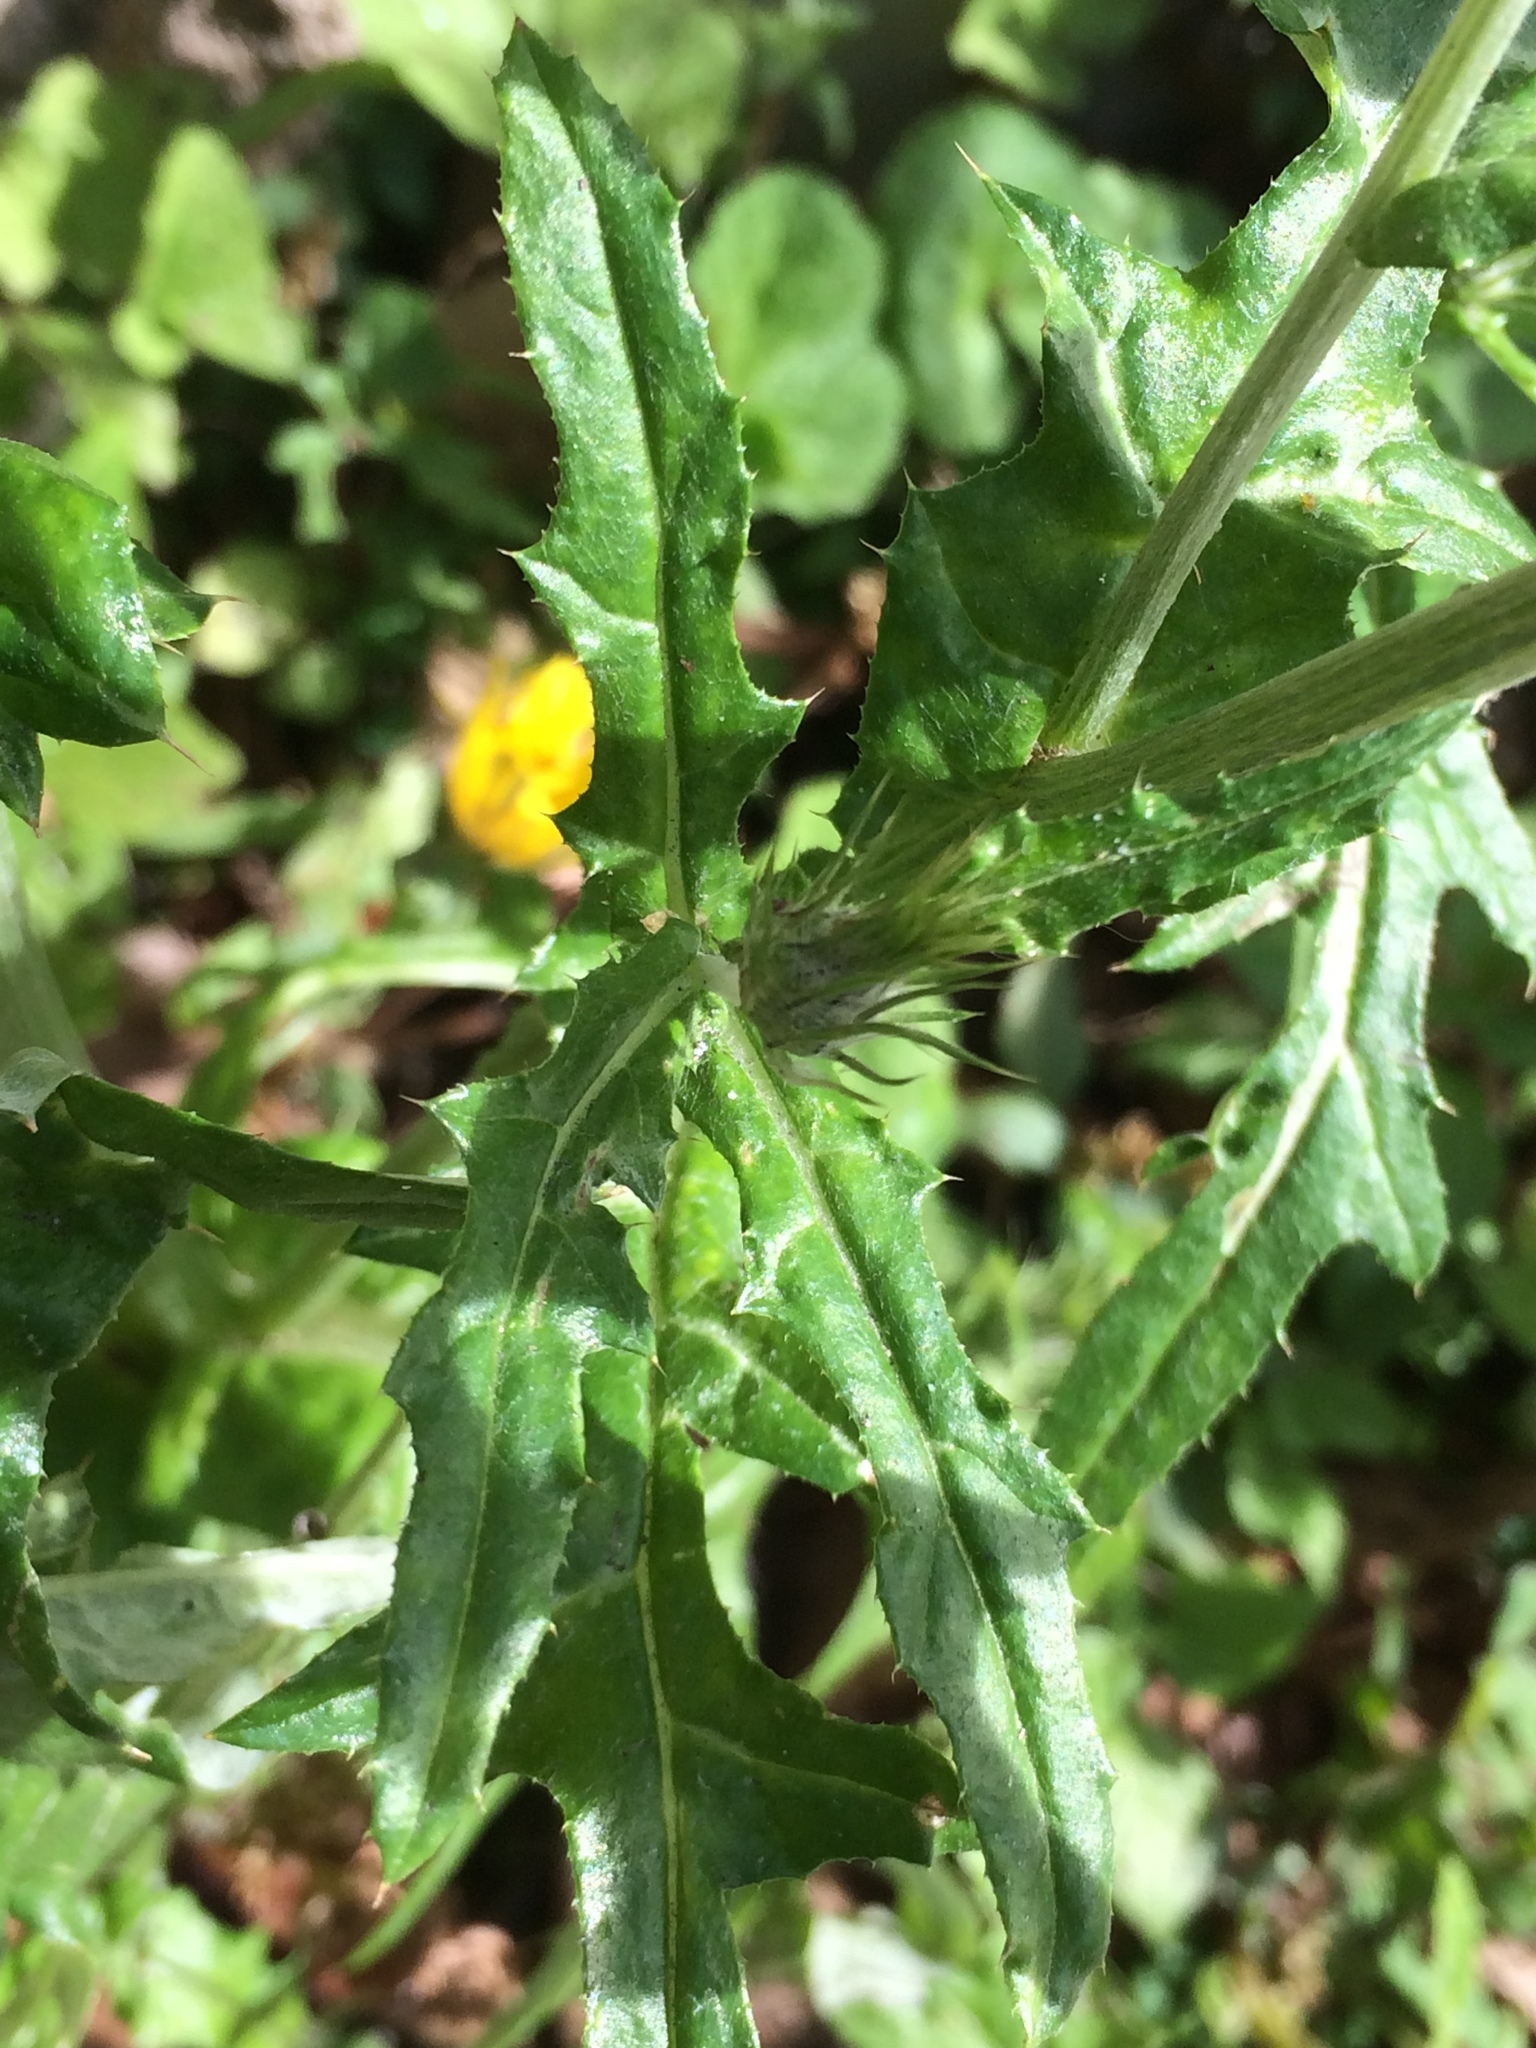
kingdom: Plantae
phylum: Tracheophyta
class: Magnoliopsida
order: Asterales
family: Asteraceae
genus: Galactites
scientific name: Galactites tomentosa
